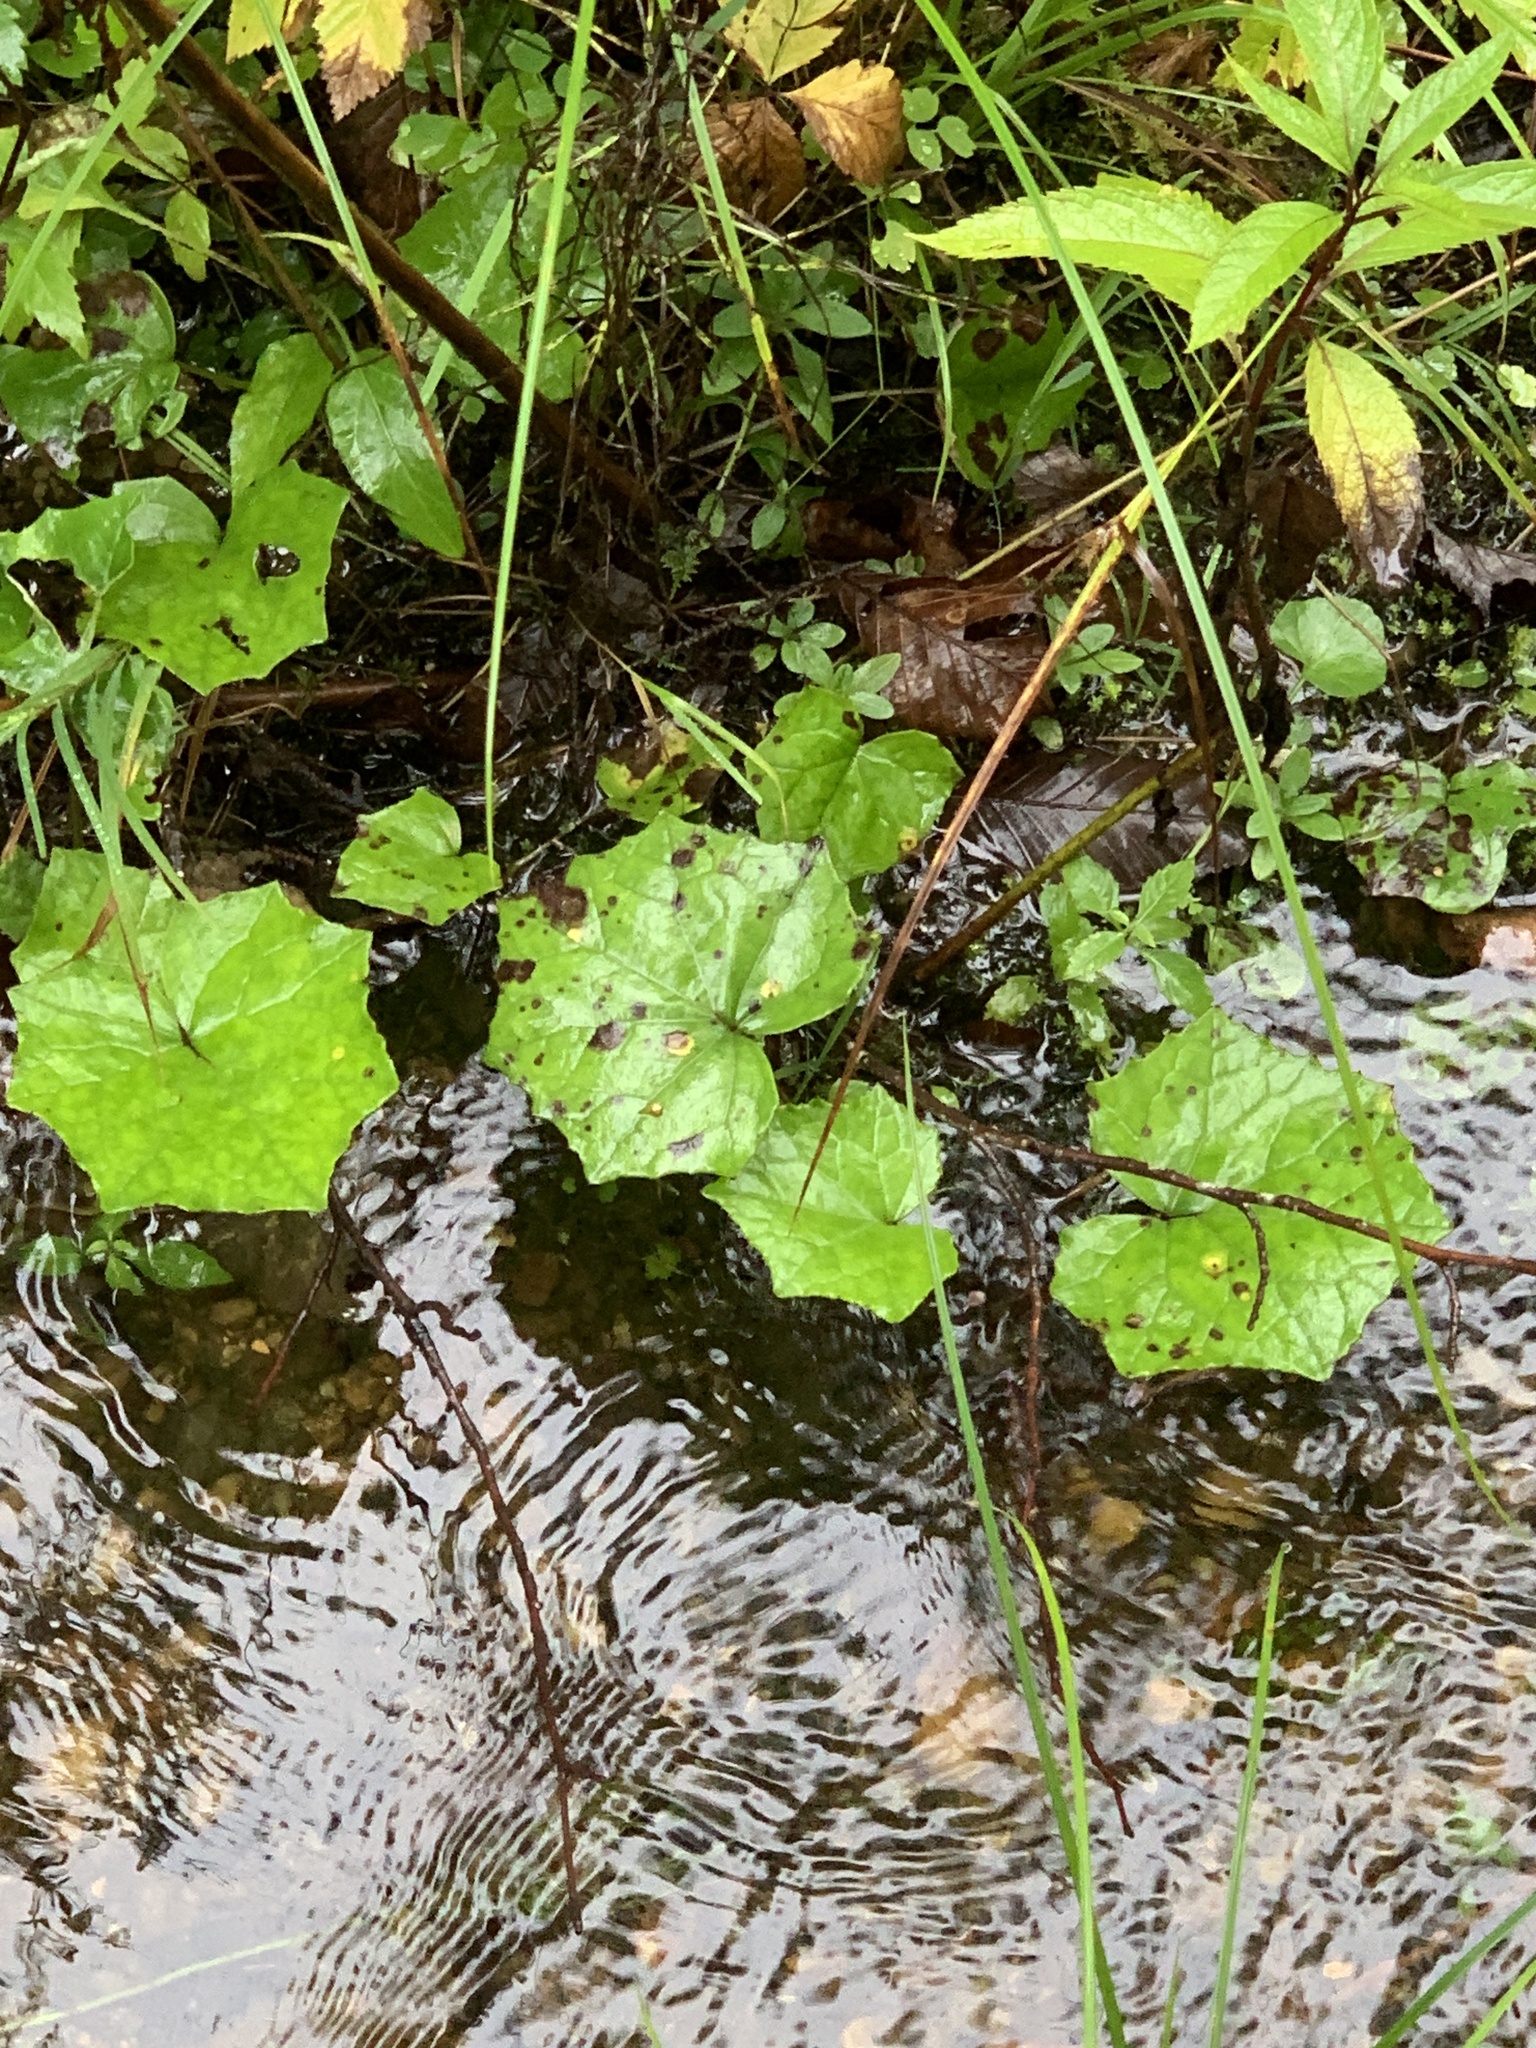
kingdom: Plantae
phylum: Tracheophyta
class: Magnoliopsida
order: Asterales
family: Asteraceae
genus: Tussilago
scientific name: Tussilago farfara
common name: Coltsfoot
